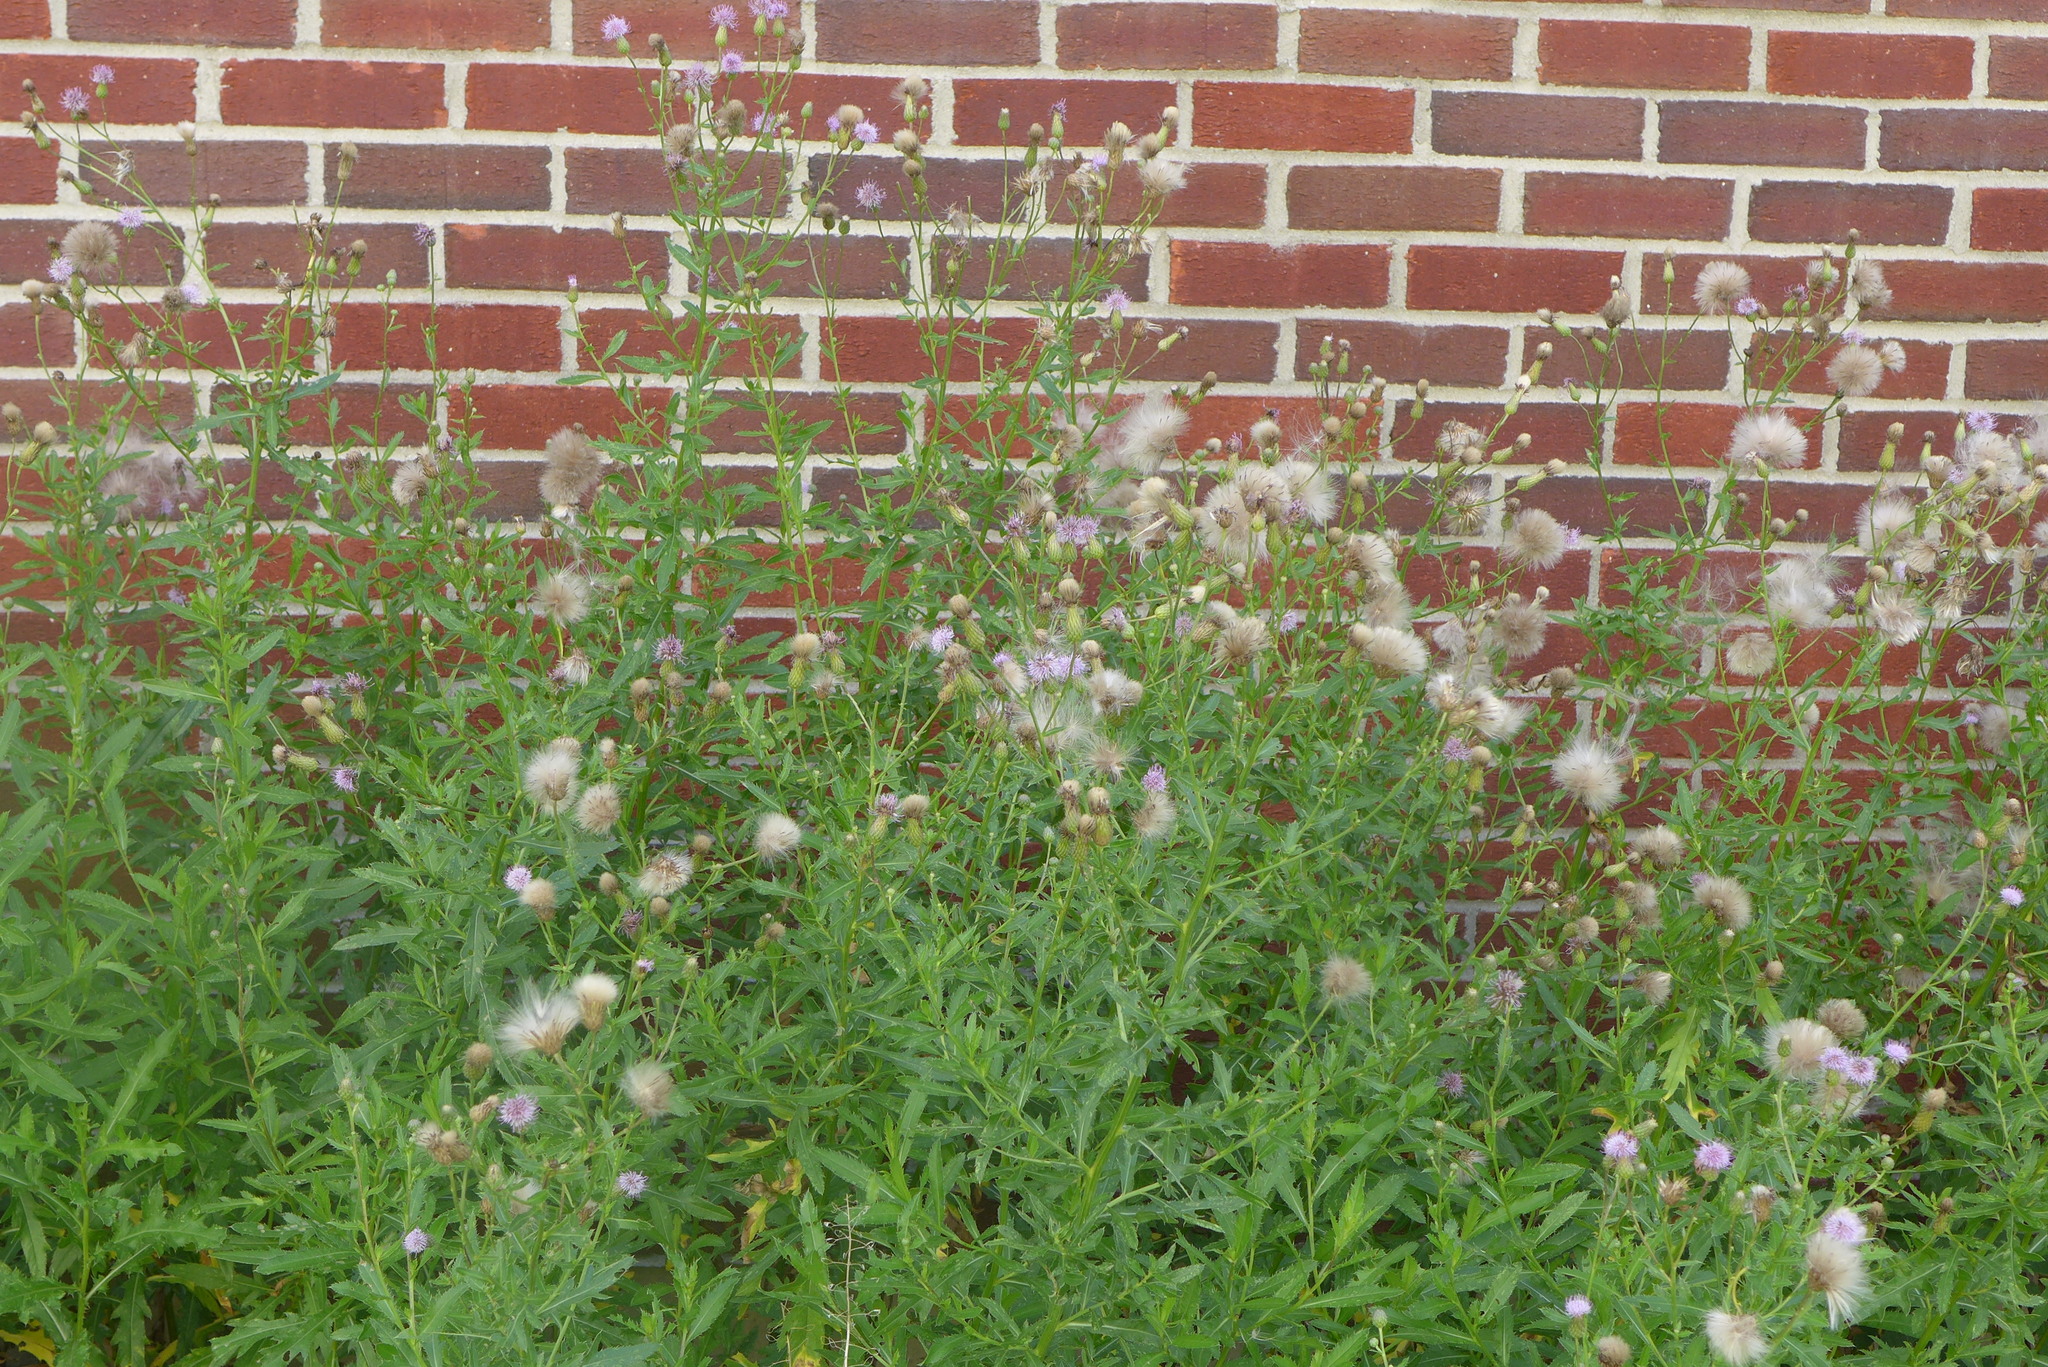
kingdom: Plantae
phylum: Tracheophyta
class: Magnoliopsida
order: Asterales
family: Asteraceae
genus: Cirsium
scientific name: Cirsium arvense
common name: Creeping thistle
